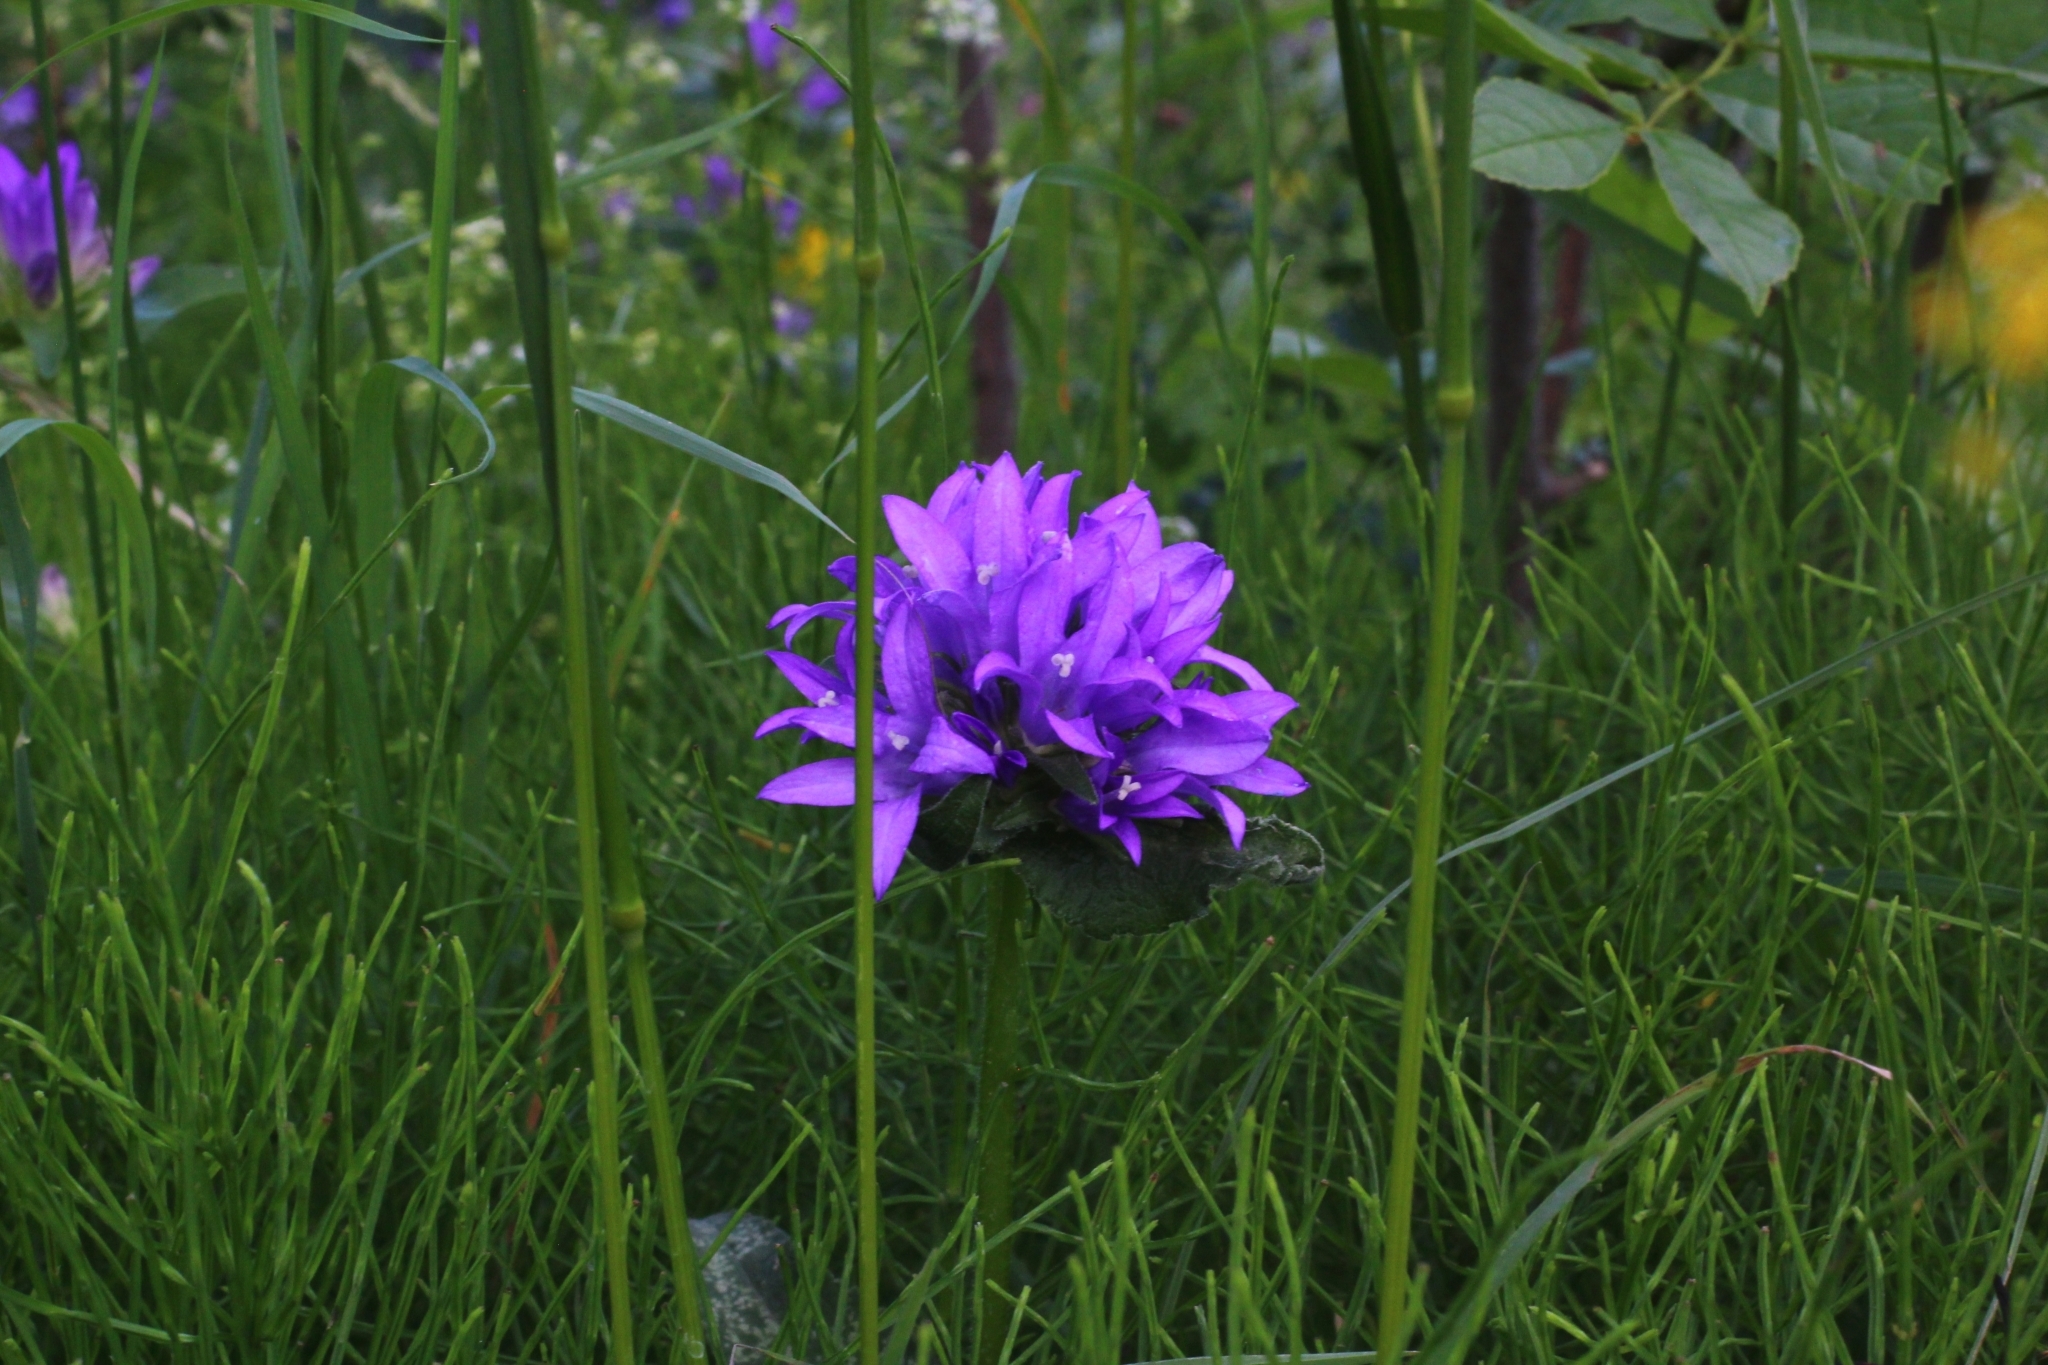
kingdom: Plantae
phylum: Tracheophyta
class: Magnoliopsida
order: Asterales
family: Campanulaceae
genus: Campanula
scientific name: Campanula glomerata
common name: Clustered bellflower
